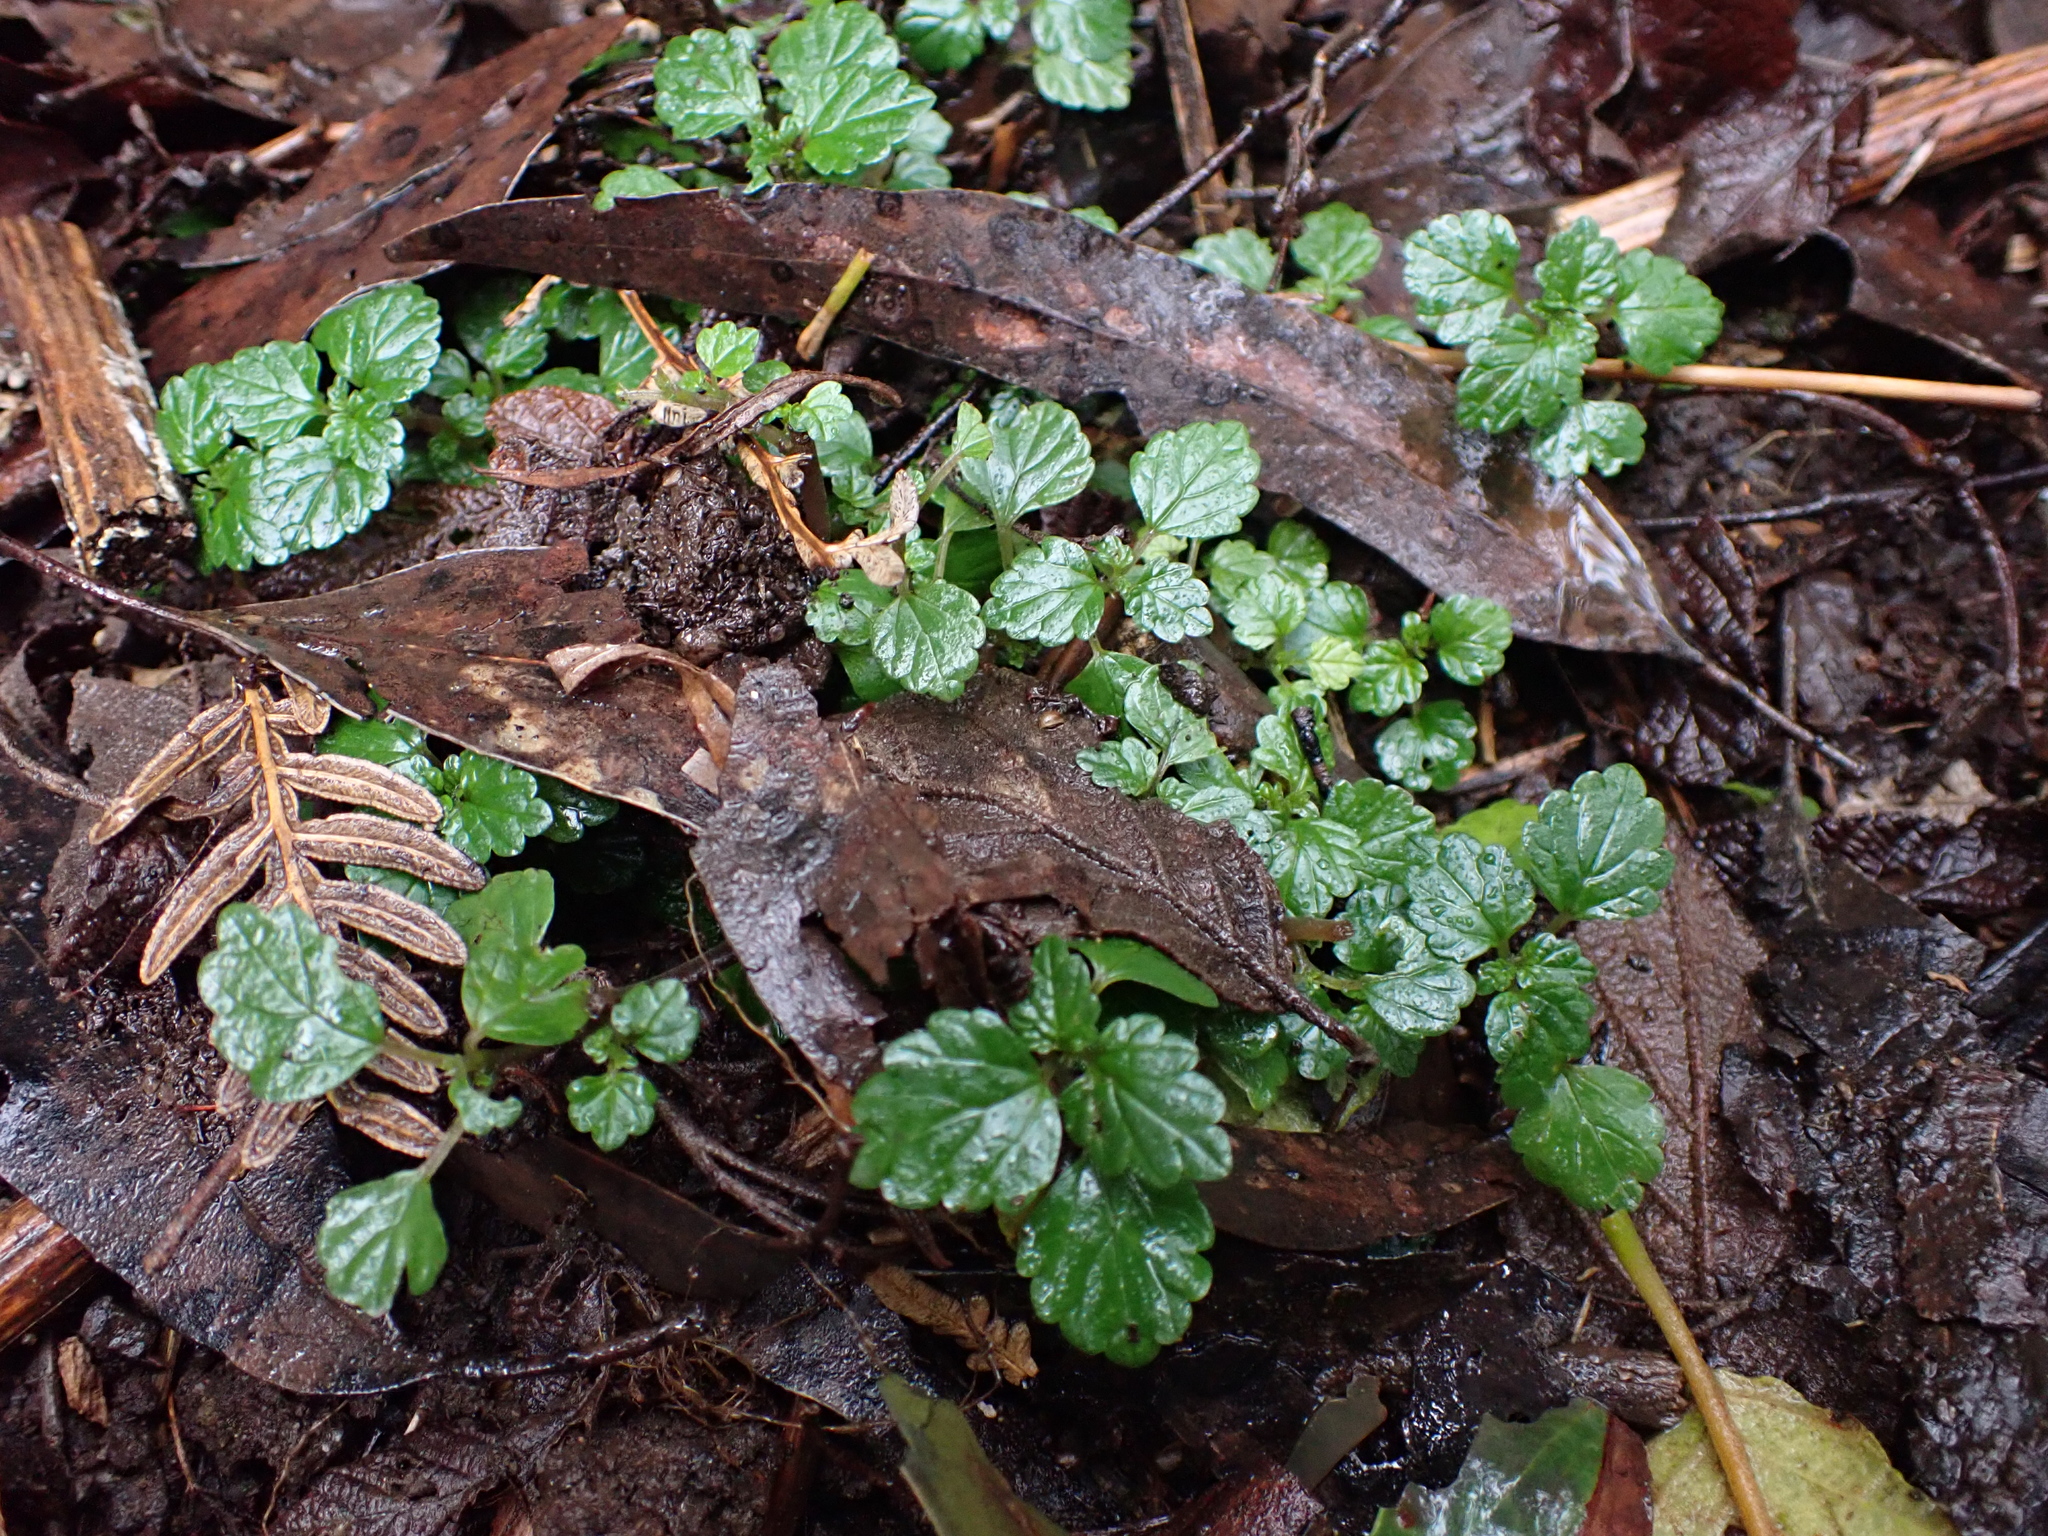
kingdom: Plantae
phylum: Tracheophyta
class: Magnoliopsida
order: Rosales
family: Urticaceae
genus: Australina
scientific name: Australina pusilla
